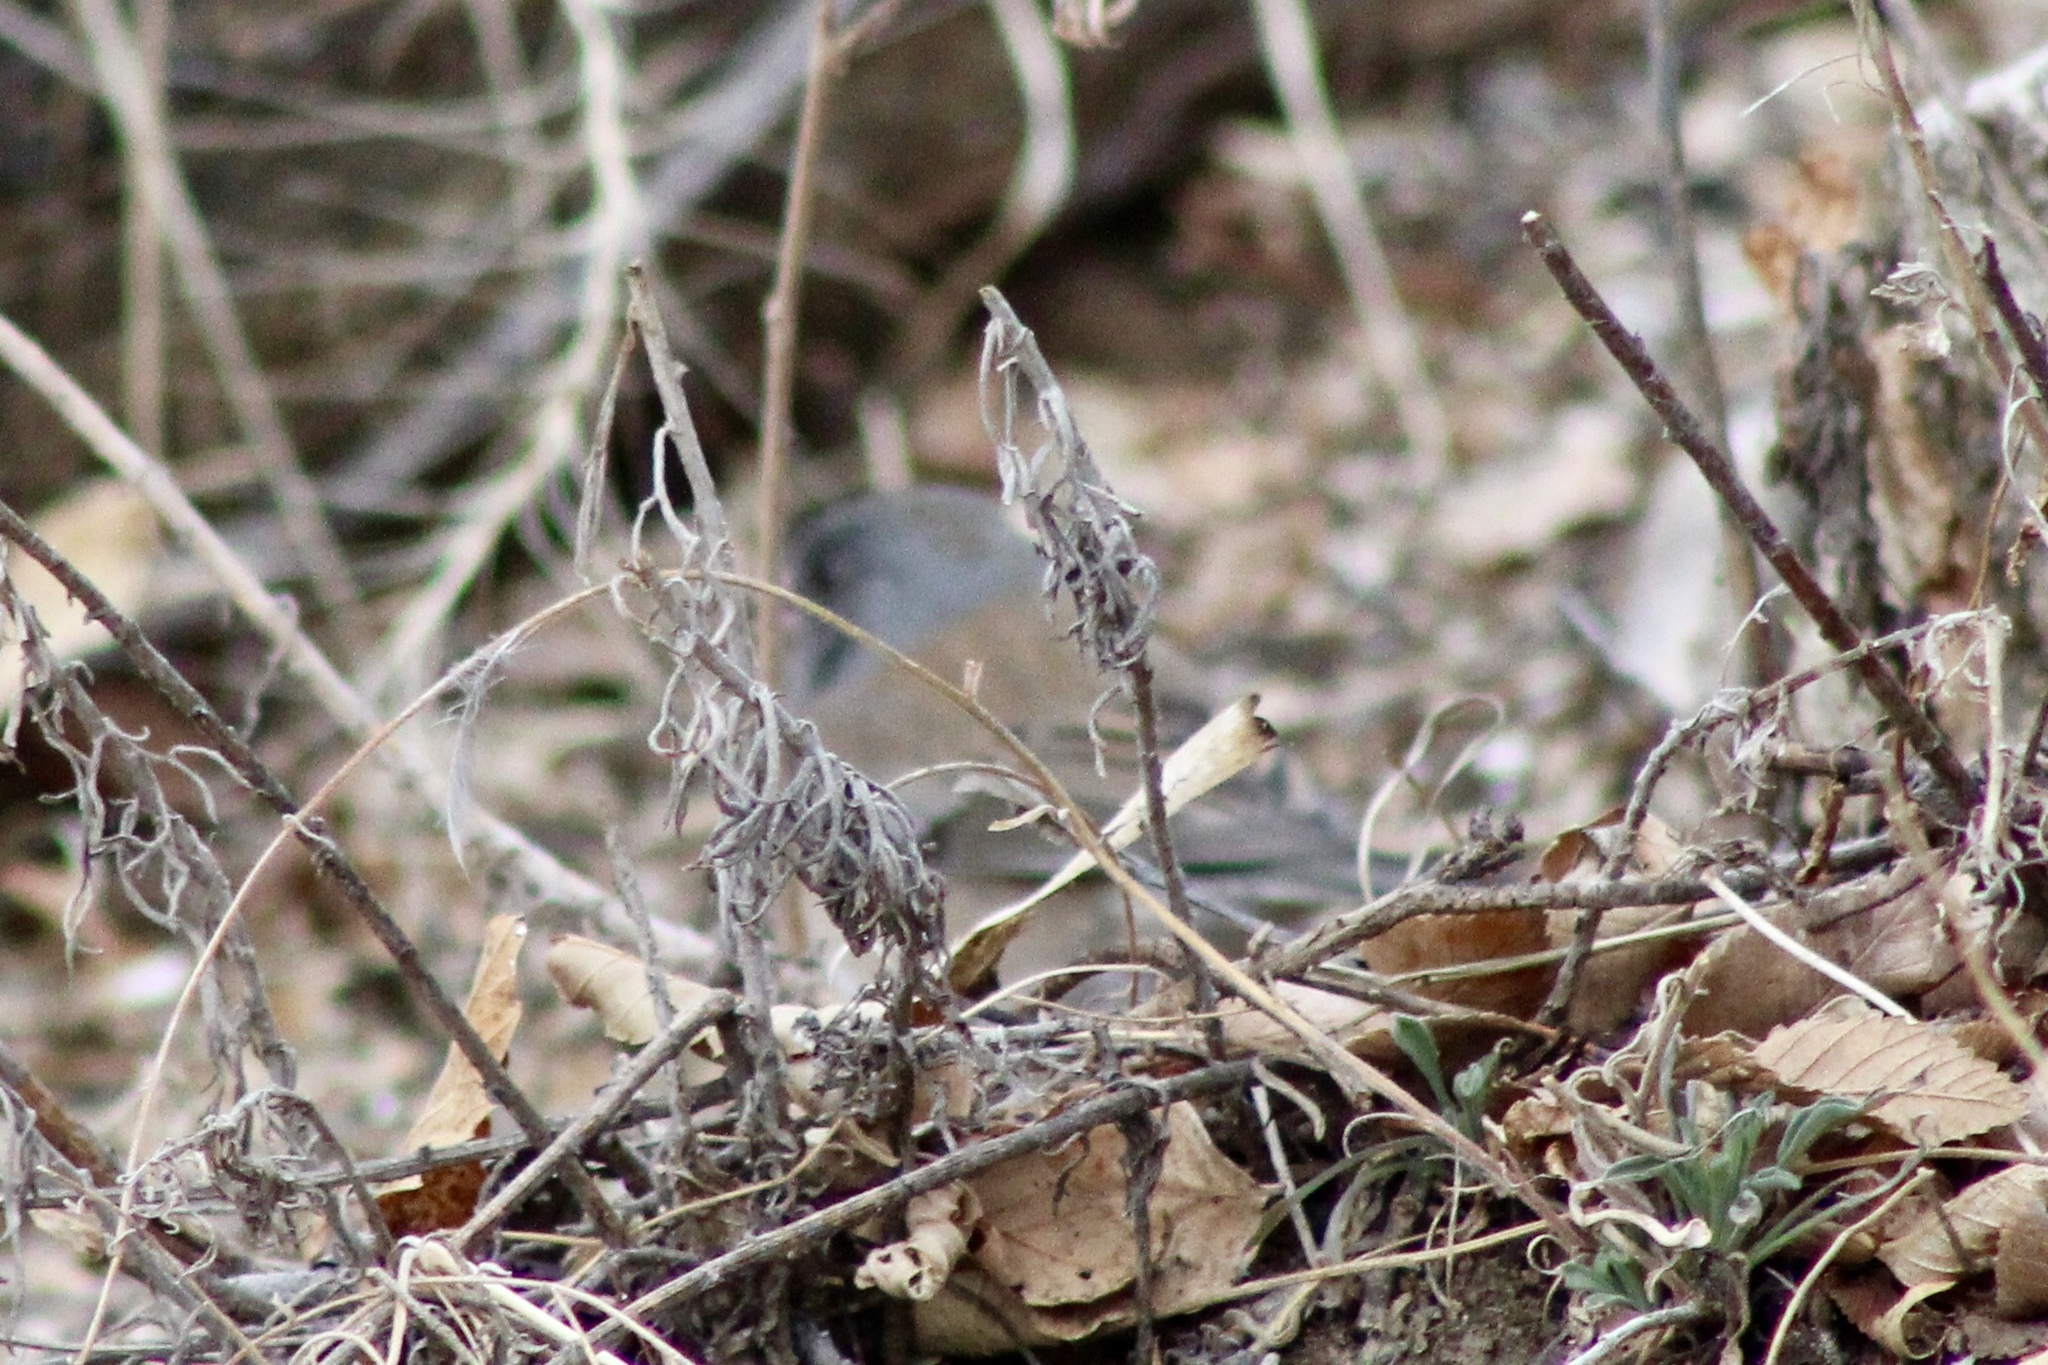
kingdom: Animalia
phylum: Chordata
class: Aves
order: Passeriformes
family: Passerellidae
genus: Junco
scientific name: Junco hyemalis
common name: Dark-eyed junco
